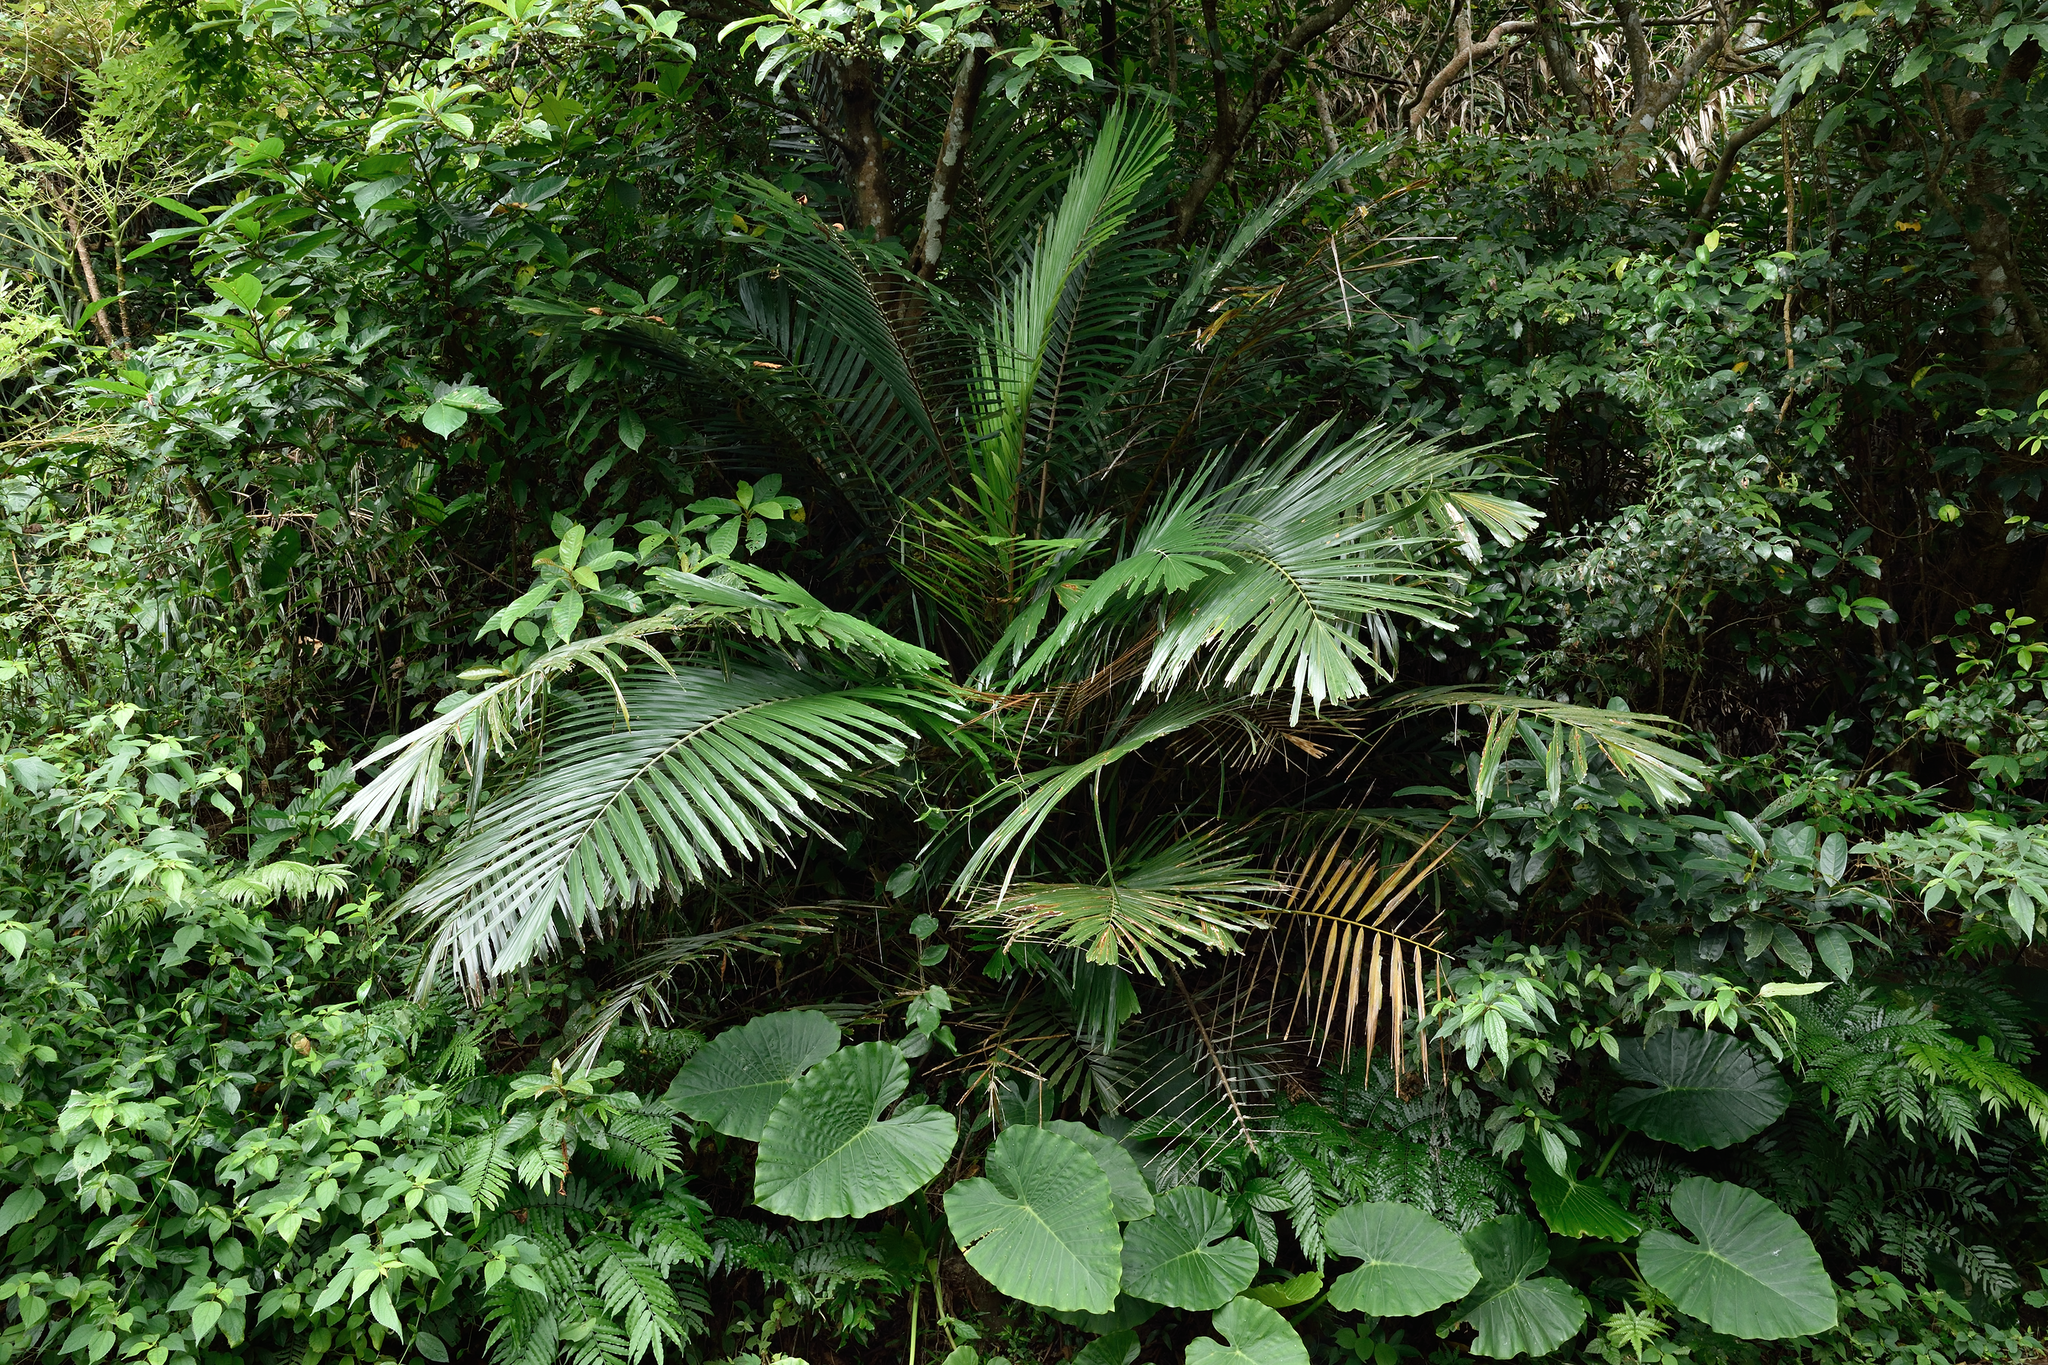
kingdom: Plantae
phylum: Tracheophyta
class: Liliopsida
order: Arecales
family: Arecaceae
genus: Arenga
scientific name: Arenga engleri
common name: Formosan sugar palm
